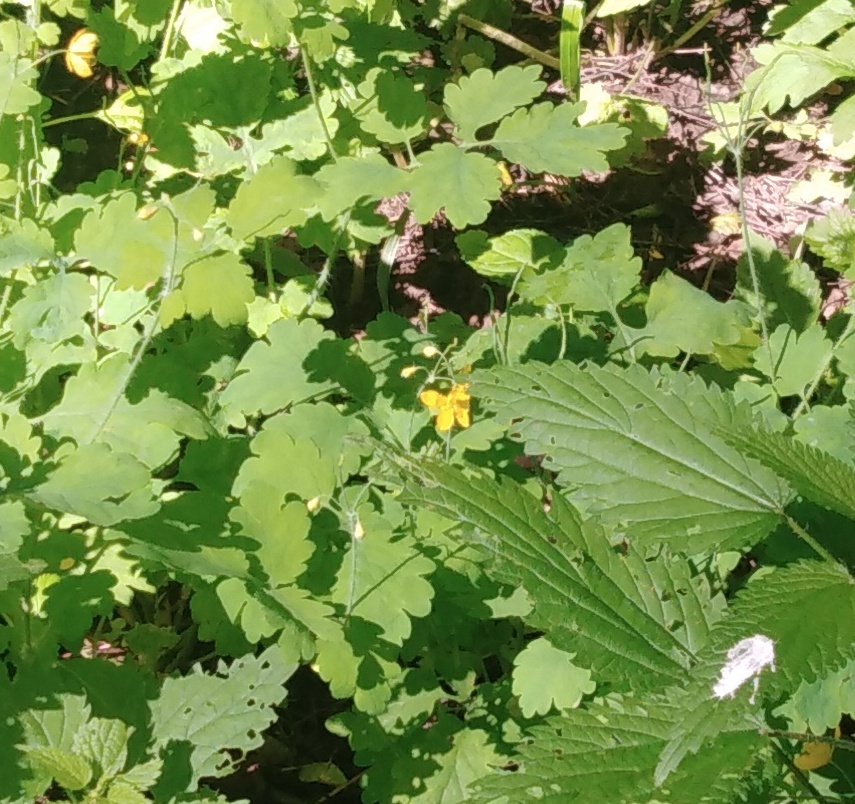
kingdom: Plantae
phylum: Tracheophyta
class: Magnoliopsida
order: Ranunculales
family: Papaveraceae
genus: Chelidonium
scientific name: Chelidonium majus
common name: Greater celandine
